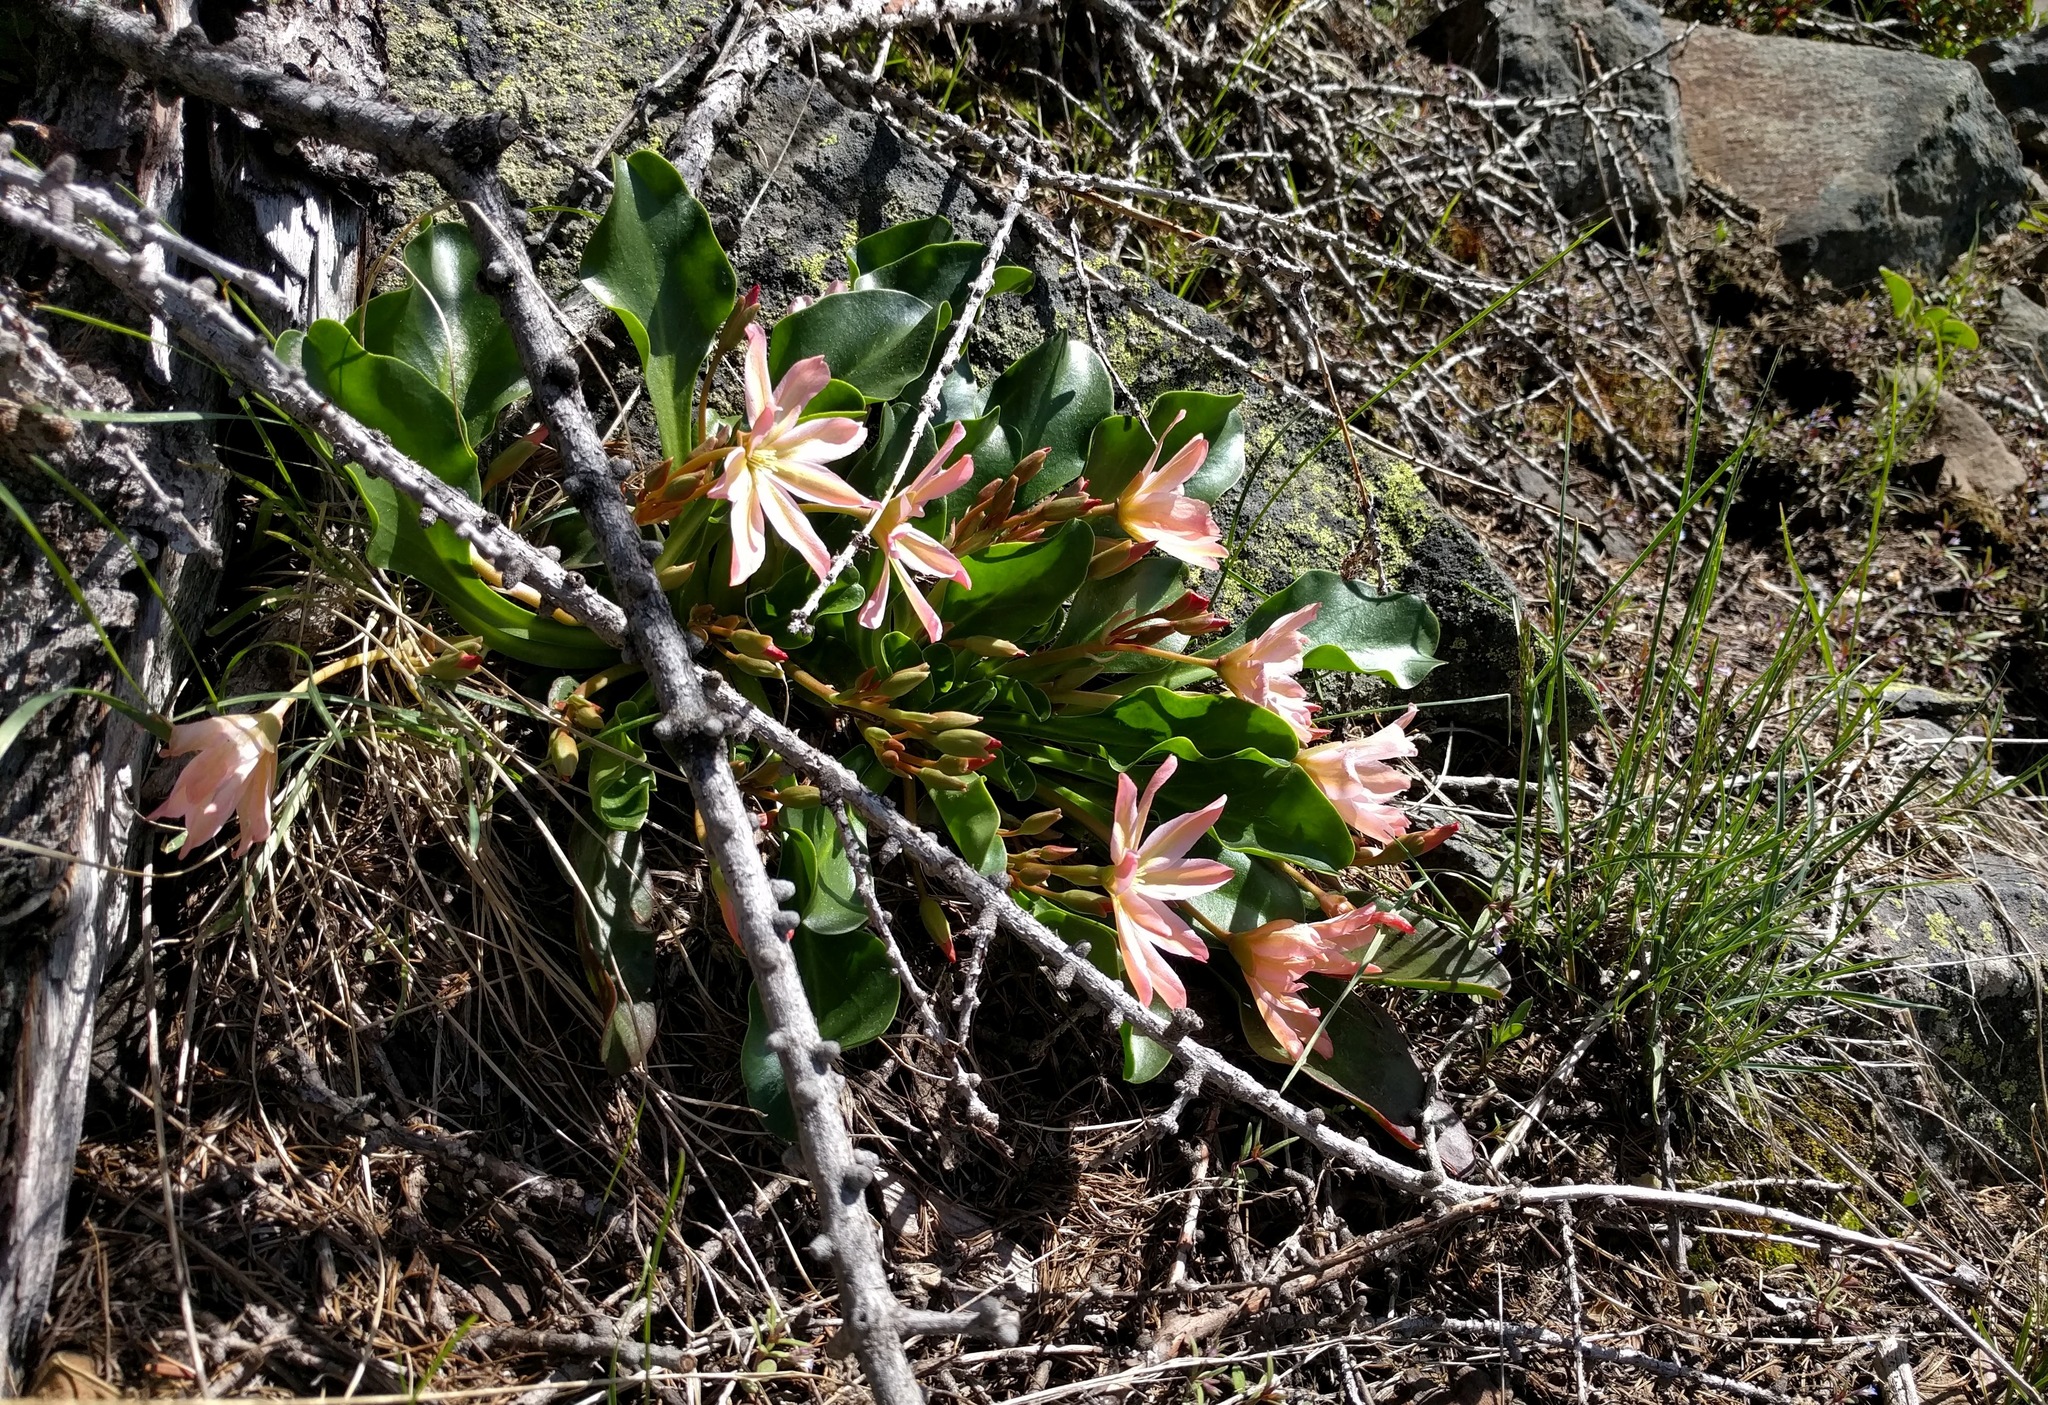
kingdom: Plantae
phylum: Tracheophyta
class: Magnoliopsida
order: Caryophyllales
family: Montiaceae
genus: Lewisiopsis
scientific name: Lewisiopsis tweedyi
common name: Tweedy's pussypaws
